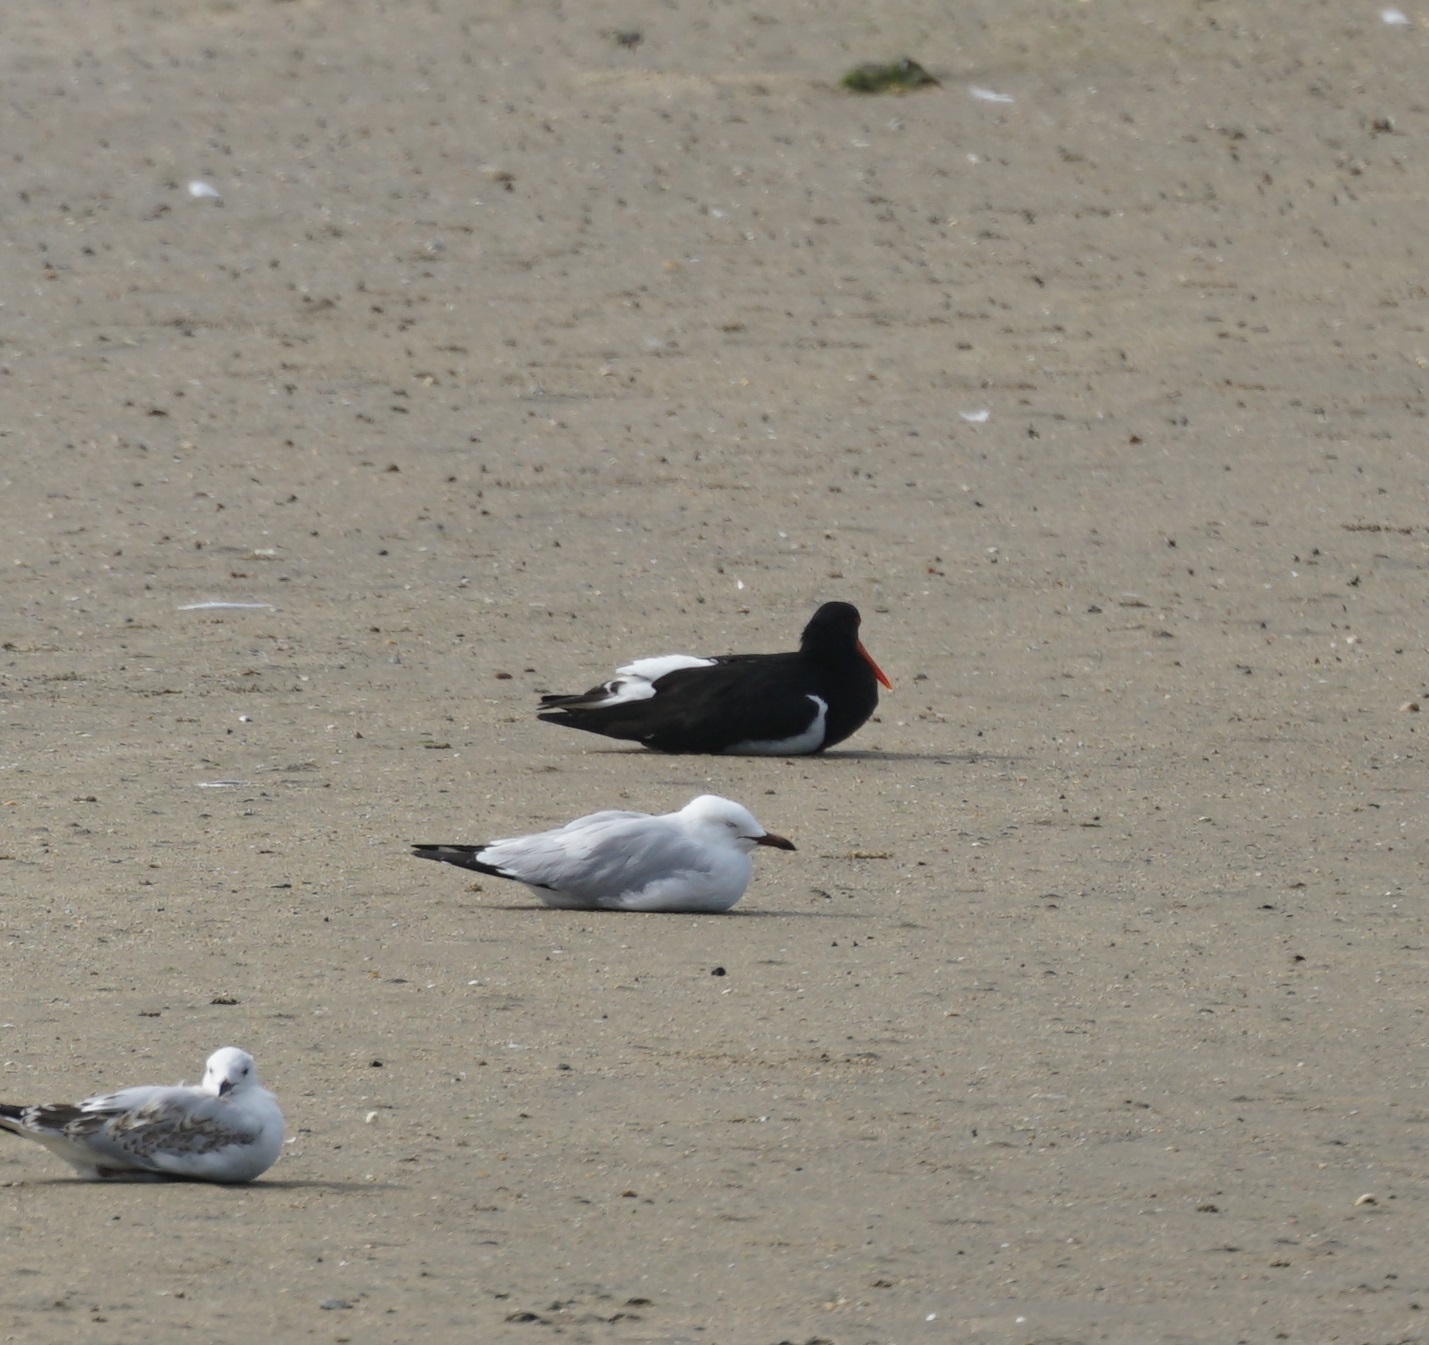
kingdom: Animalia
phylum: Chordata
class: Aves
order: Charadriiformes
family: Haematopodidae
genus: Haematopus
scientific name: Haematopus longirostris
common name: Pied oystercatcher
